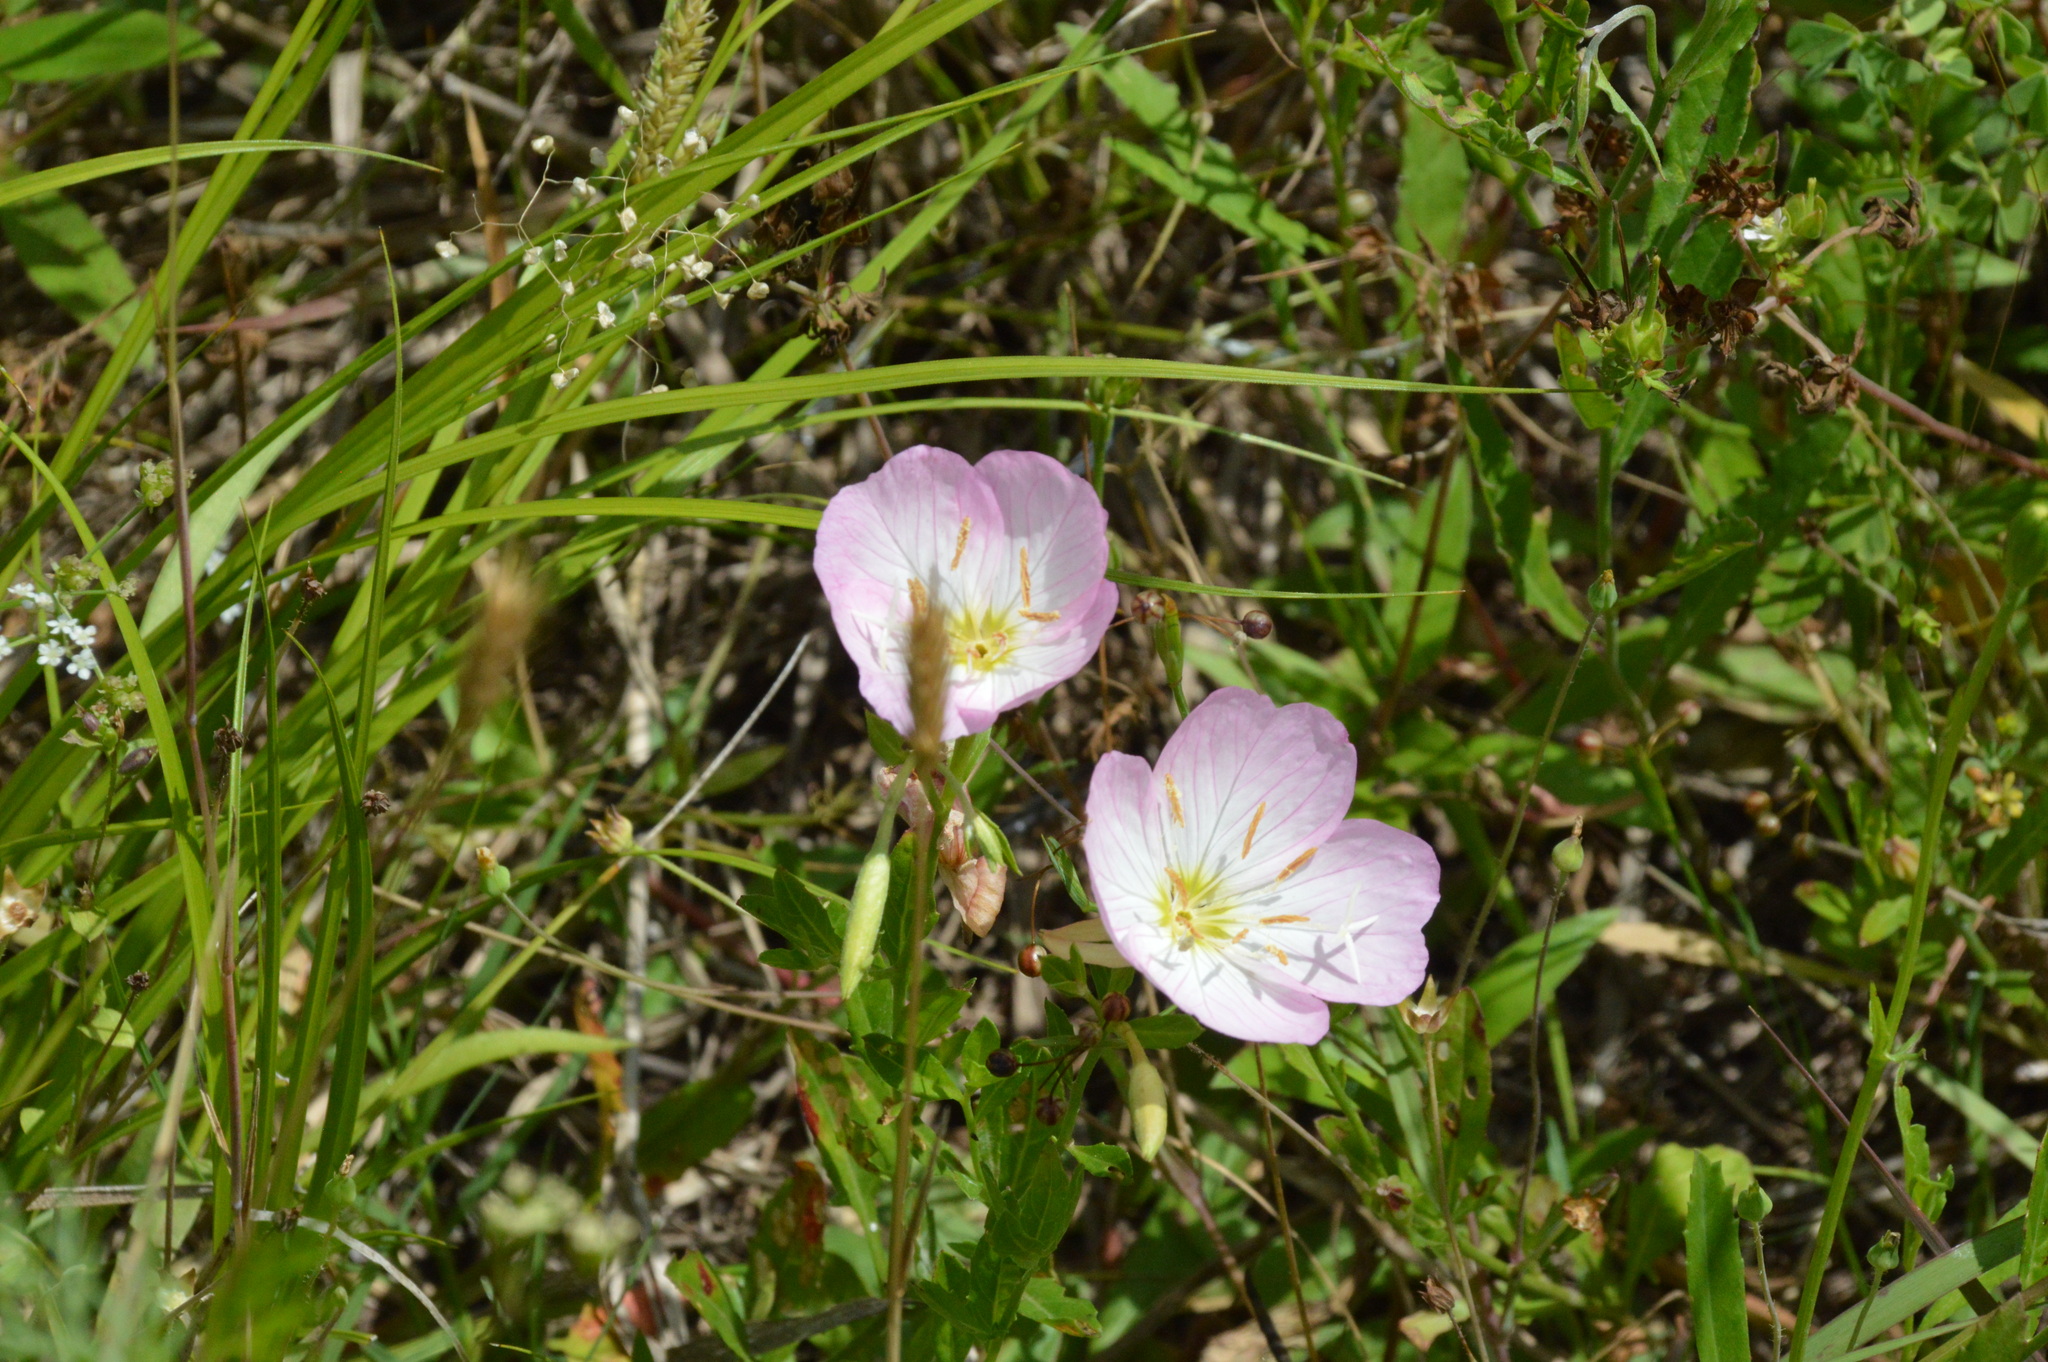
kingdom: Plantae
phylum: Tracheophyta
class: Magnoliopsida
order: Myrtales
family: Onagraceae
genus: Oenothera
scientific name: Oenothera speciosa
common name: White evening-primrose
